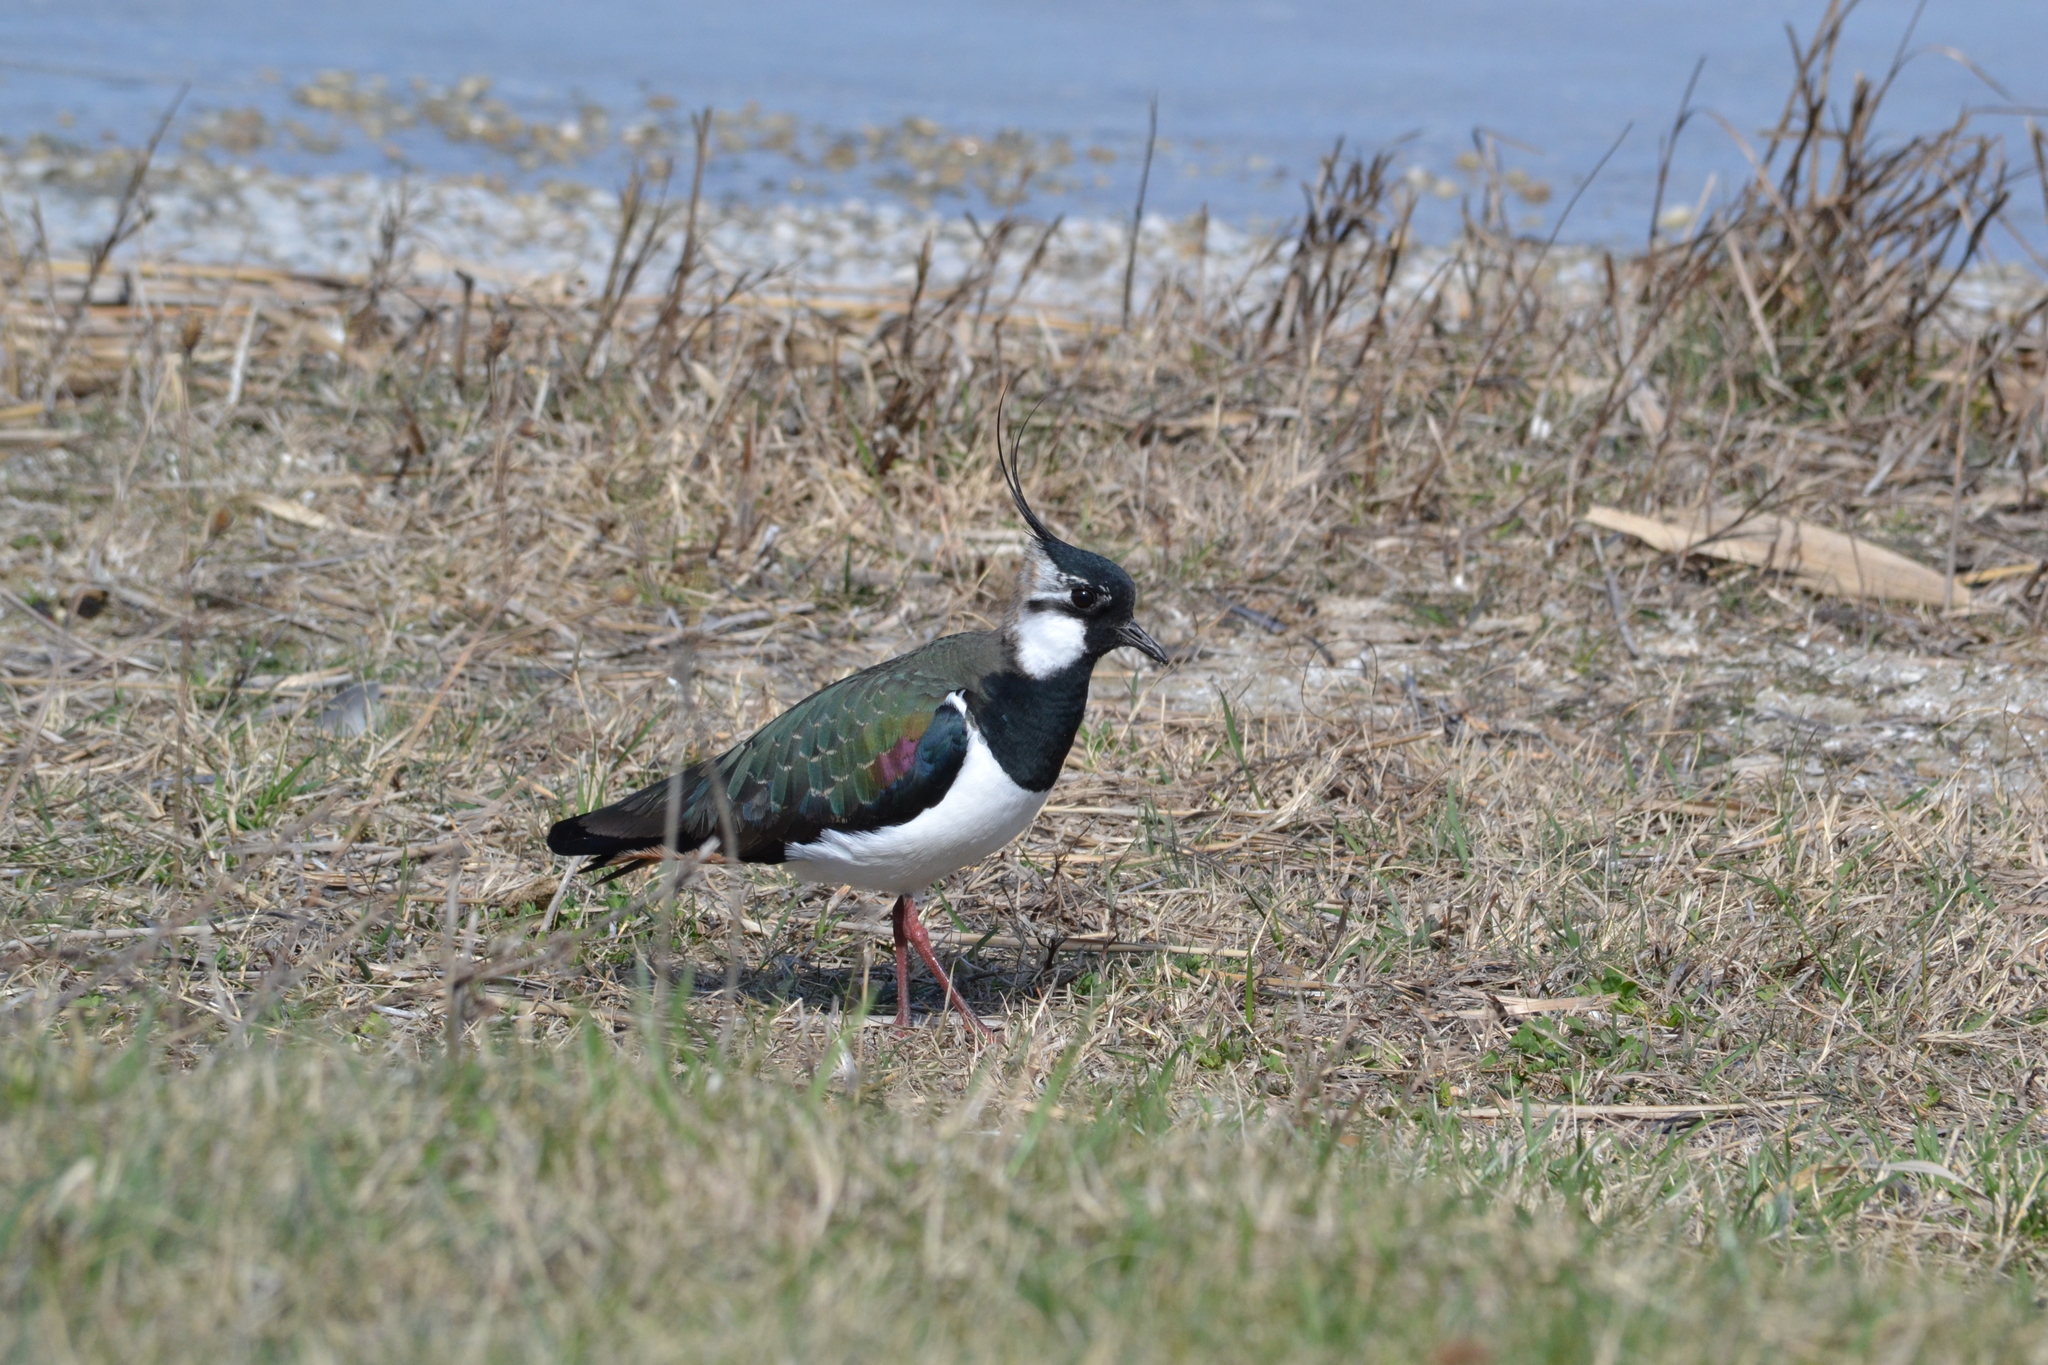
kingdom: Animalia
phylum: Chordata
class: Aves
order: Charadriiformes
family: Charadriidae
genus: Vanellus
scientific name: Vanellus vanellus
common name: Northern lapwing
